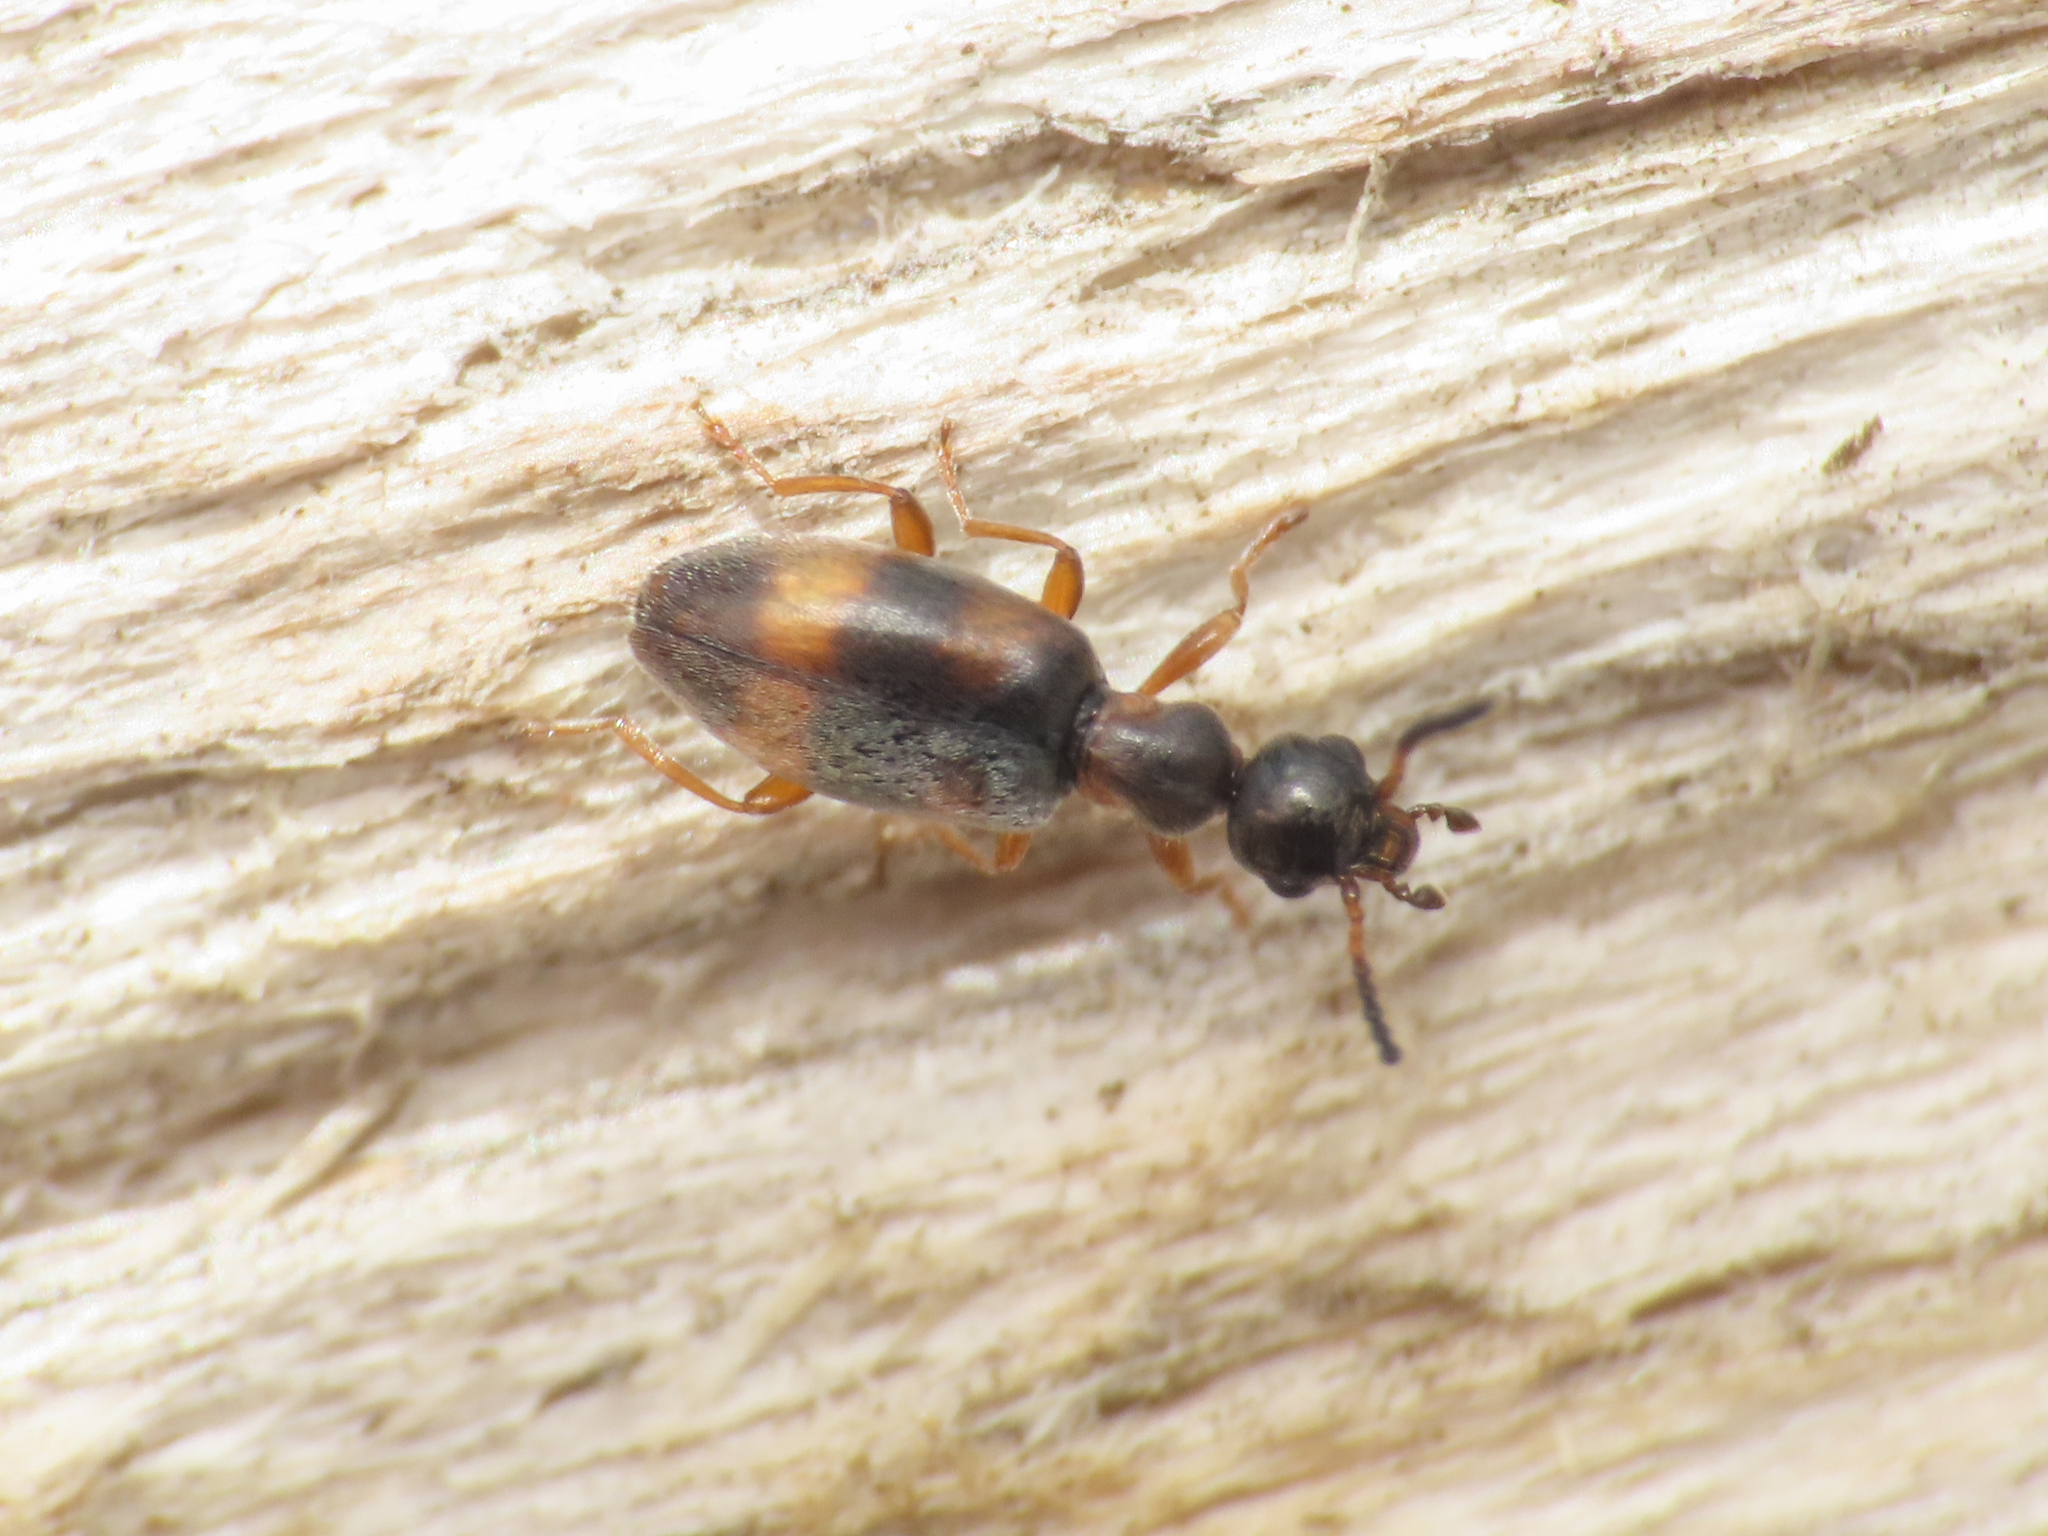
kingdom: Animalia
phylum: Arthropoda
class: Insecta
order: Coleoptera
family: Anthicidae
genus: Microhoria
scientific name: Microhoria fasciata
